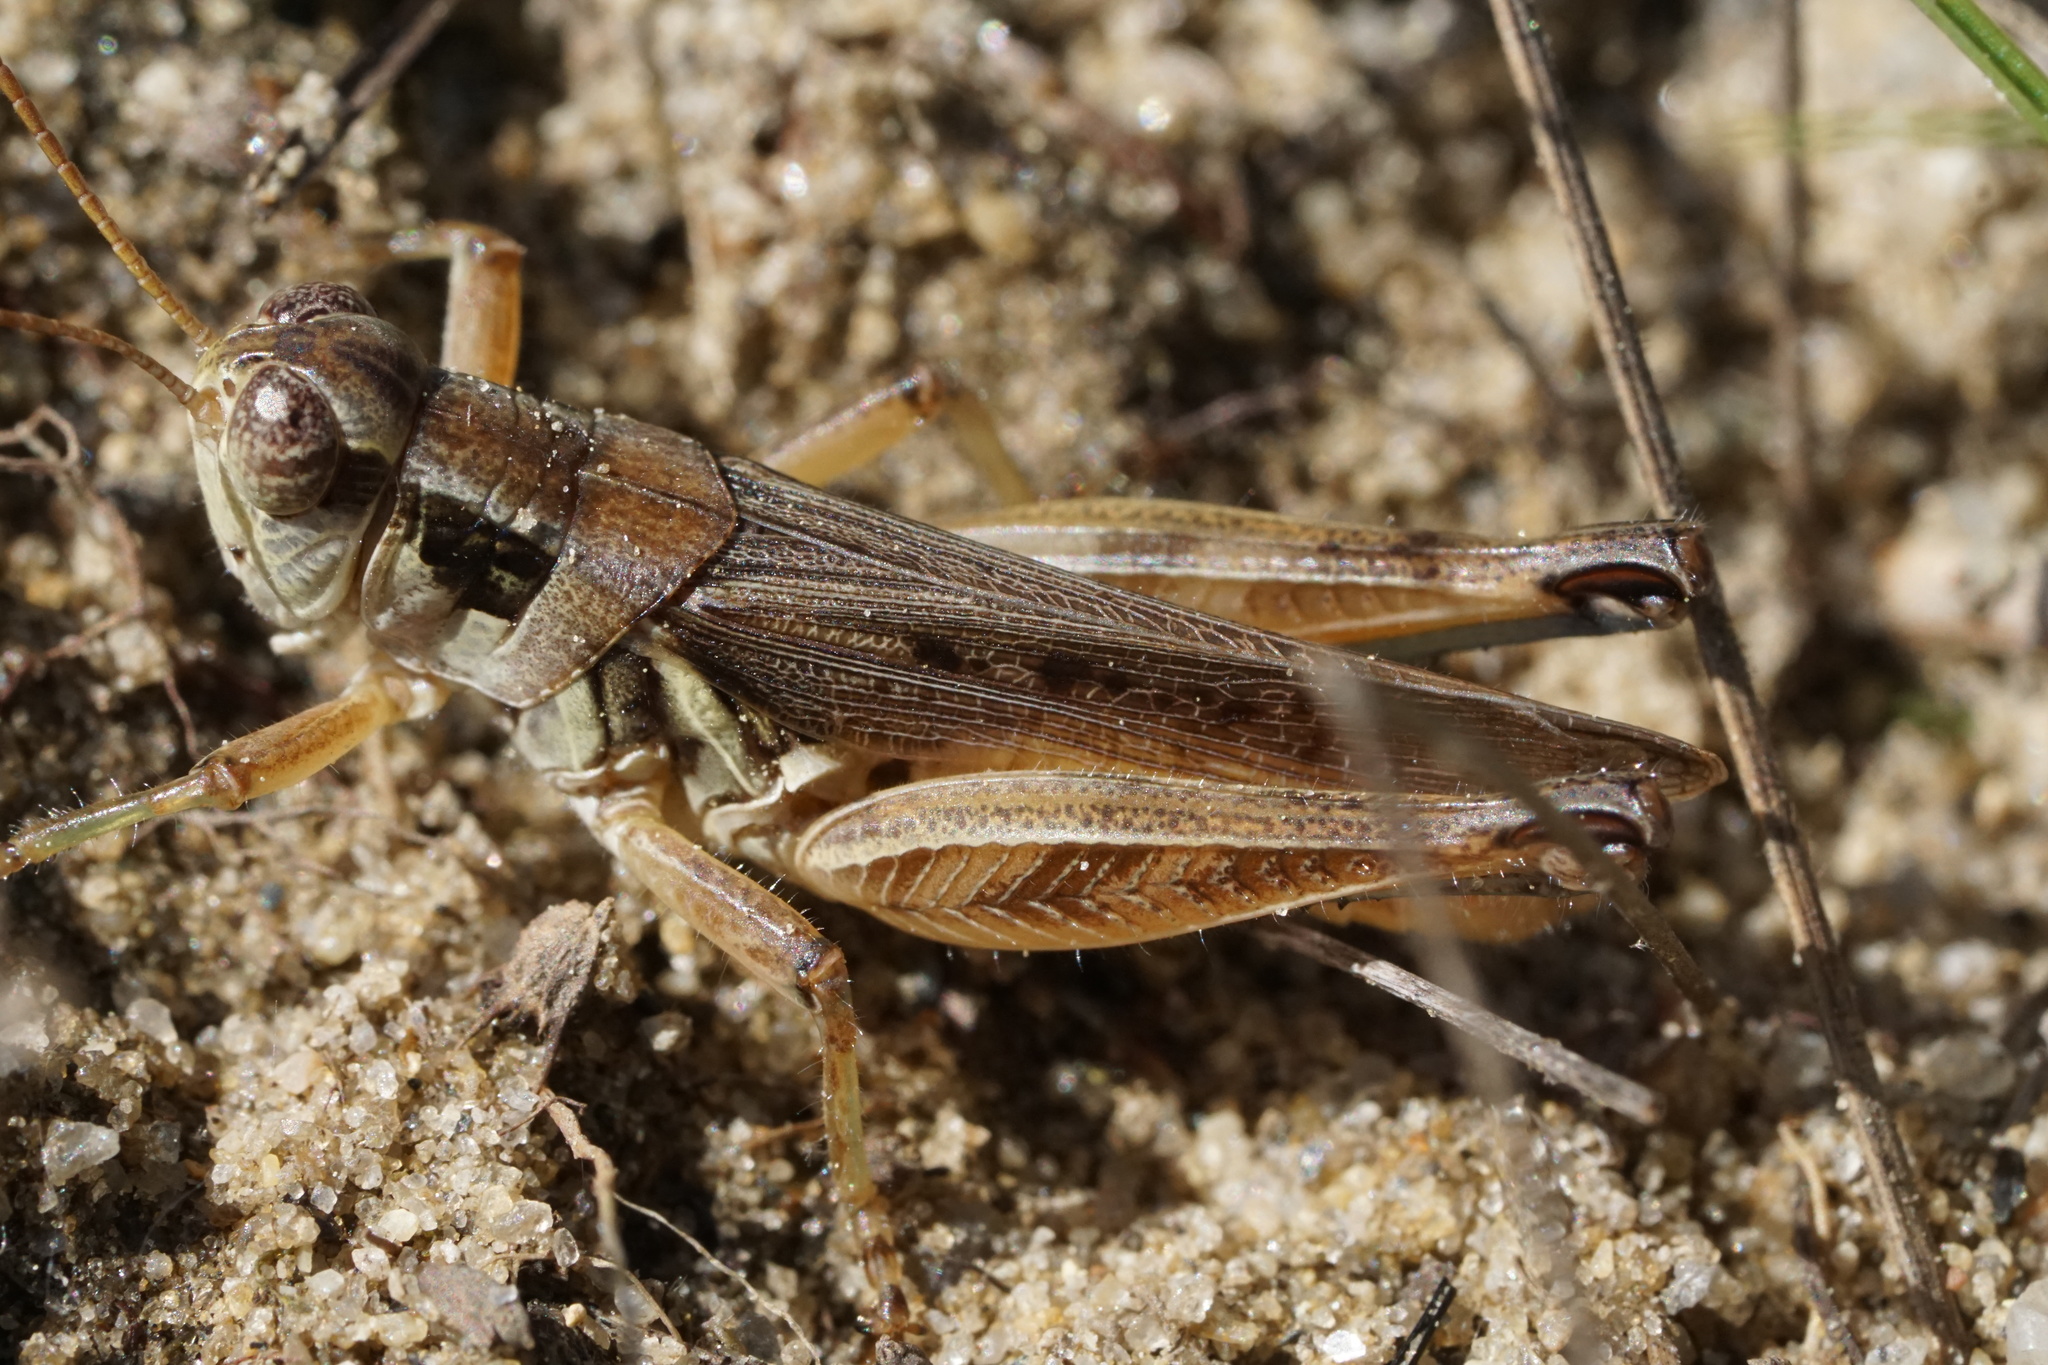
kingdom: Animalia
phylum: Arthropoda
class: Insecta
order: Orthoptera
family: Acrididae
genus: Melanoplus
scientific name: Melanoplus confusus
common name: Little pasture locust
